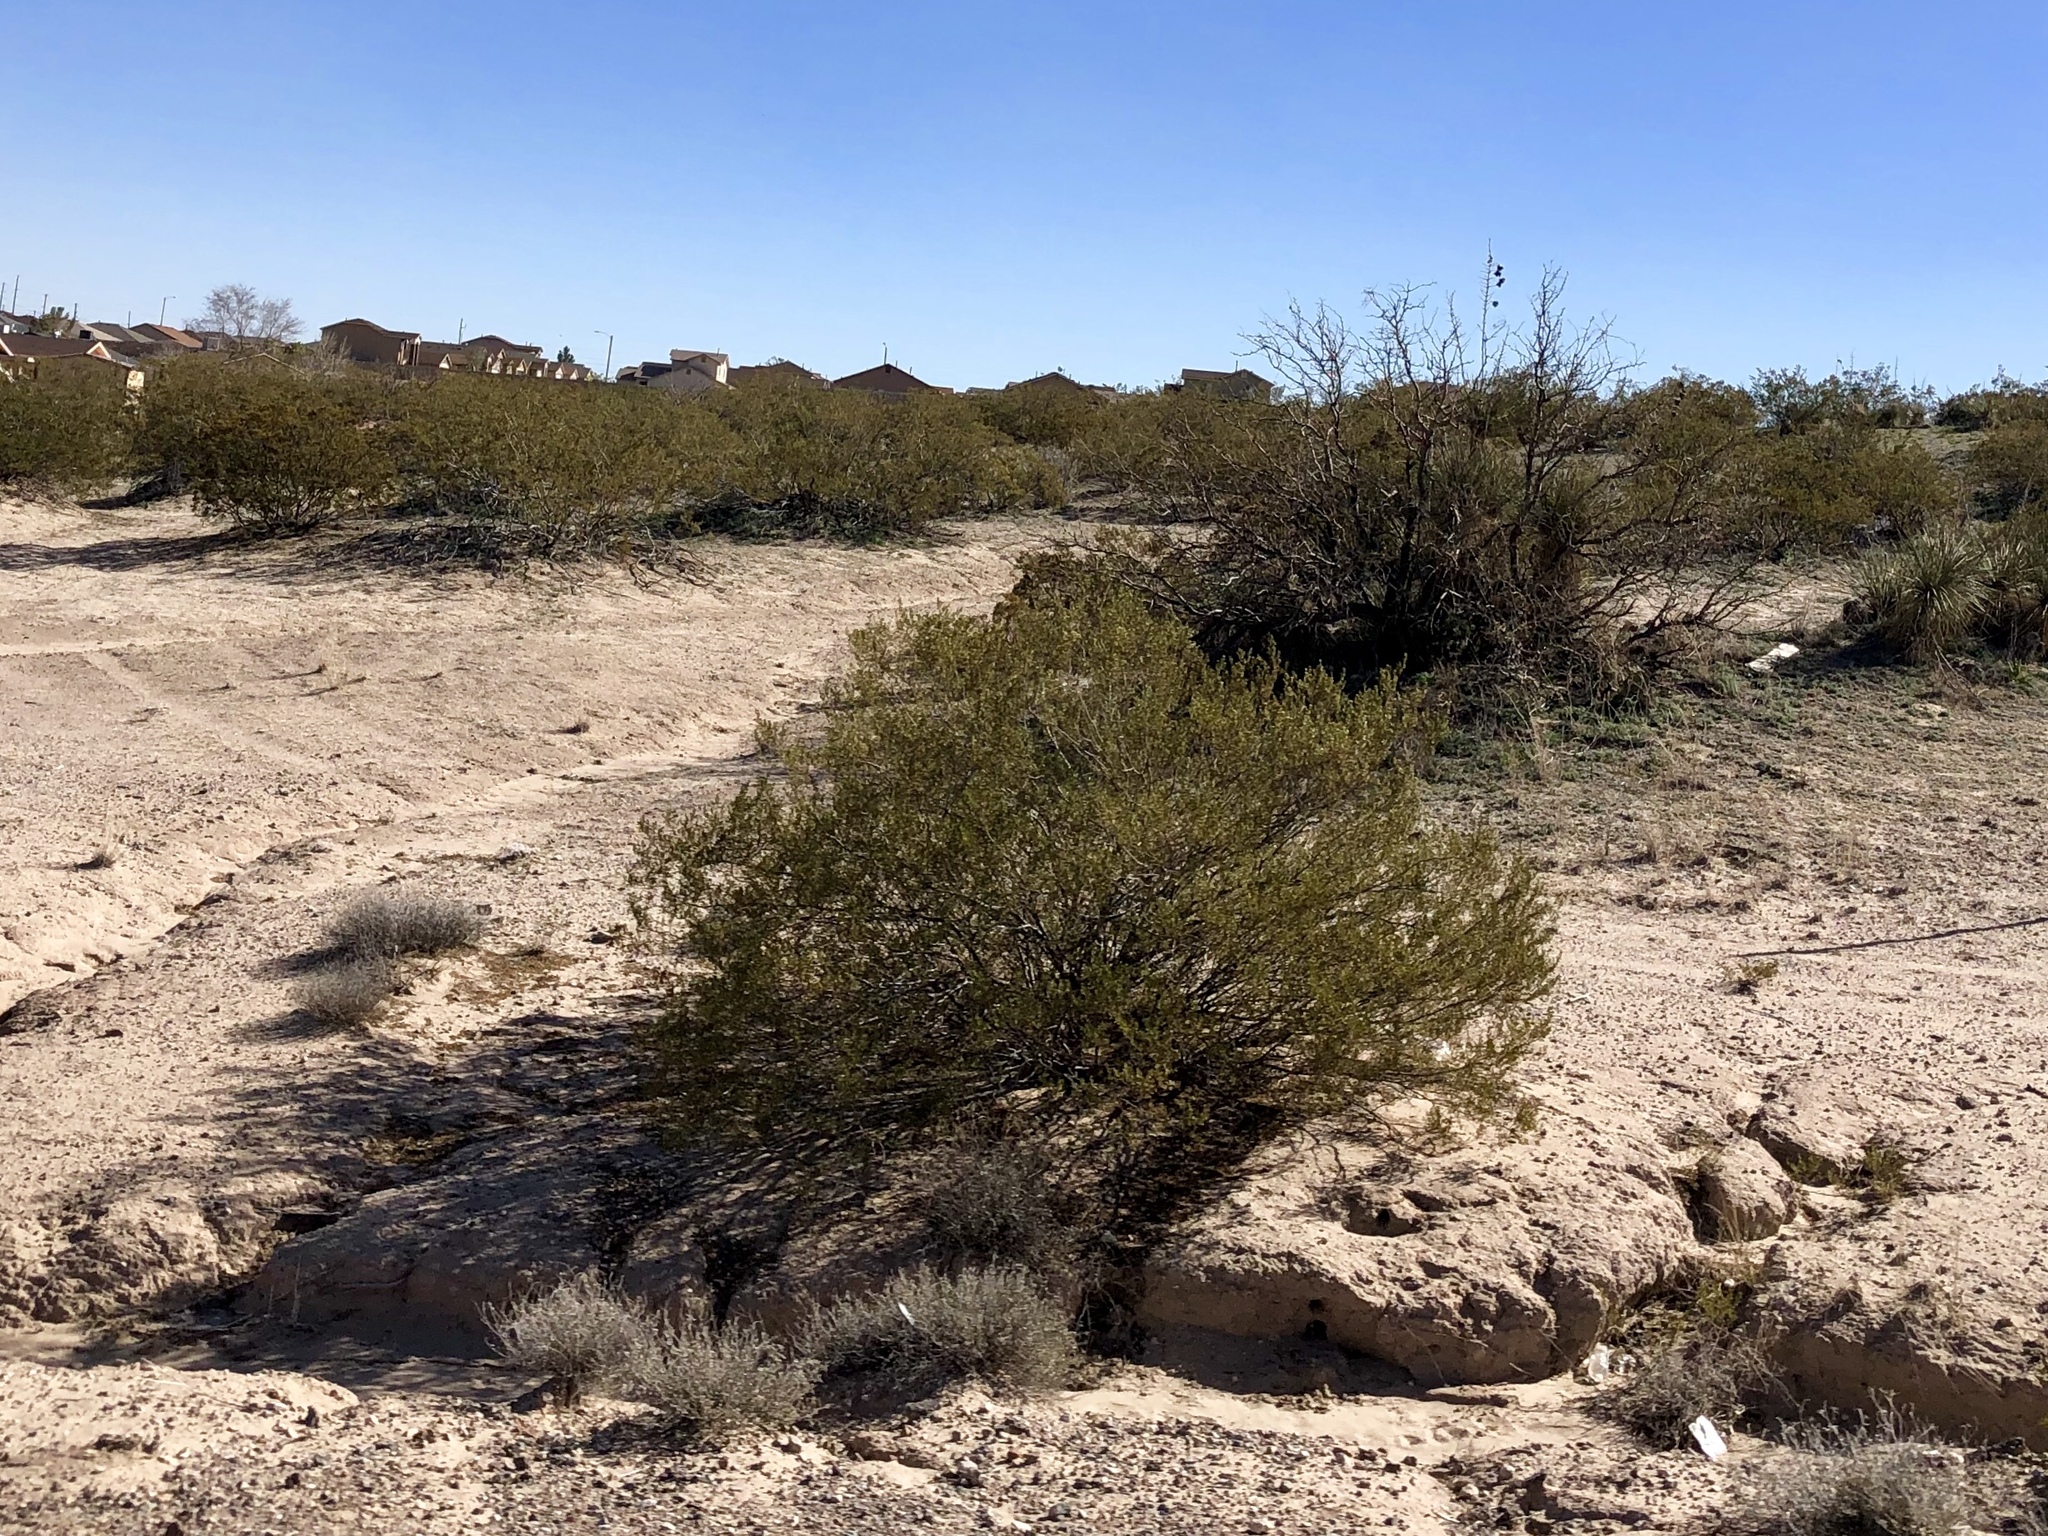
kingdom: Plantae
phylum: Tracheophyta
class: Magnoliopsida
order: Zygophyllales
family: Zygophyllaceae
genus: Larrea
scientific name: Larrea tridentata
